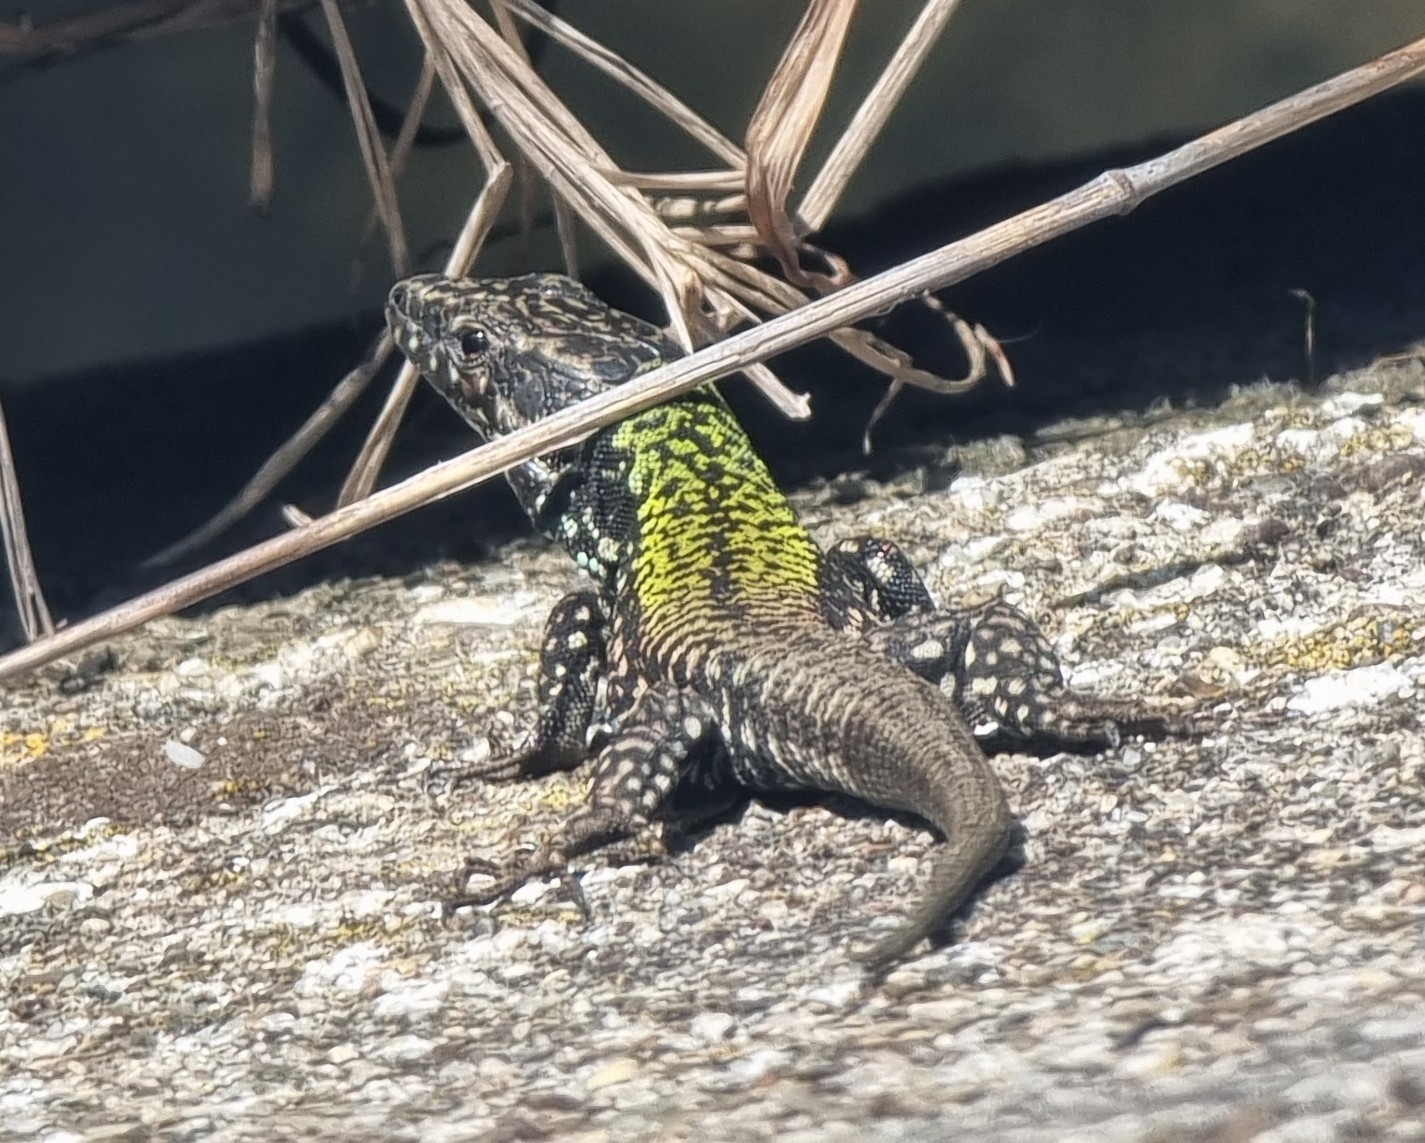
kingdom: Animalia
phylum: Chordata
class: Squamata
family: Lacertidae
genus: Podarcis
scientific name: Podarcis muralis
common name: Common wall lizard
